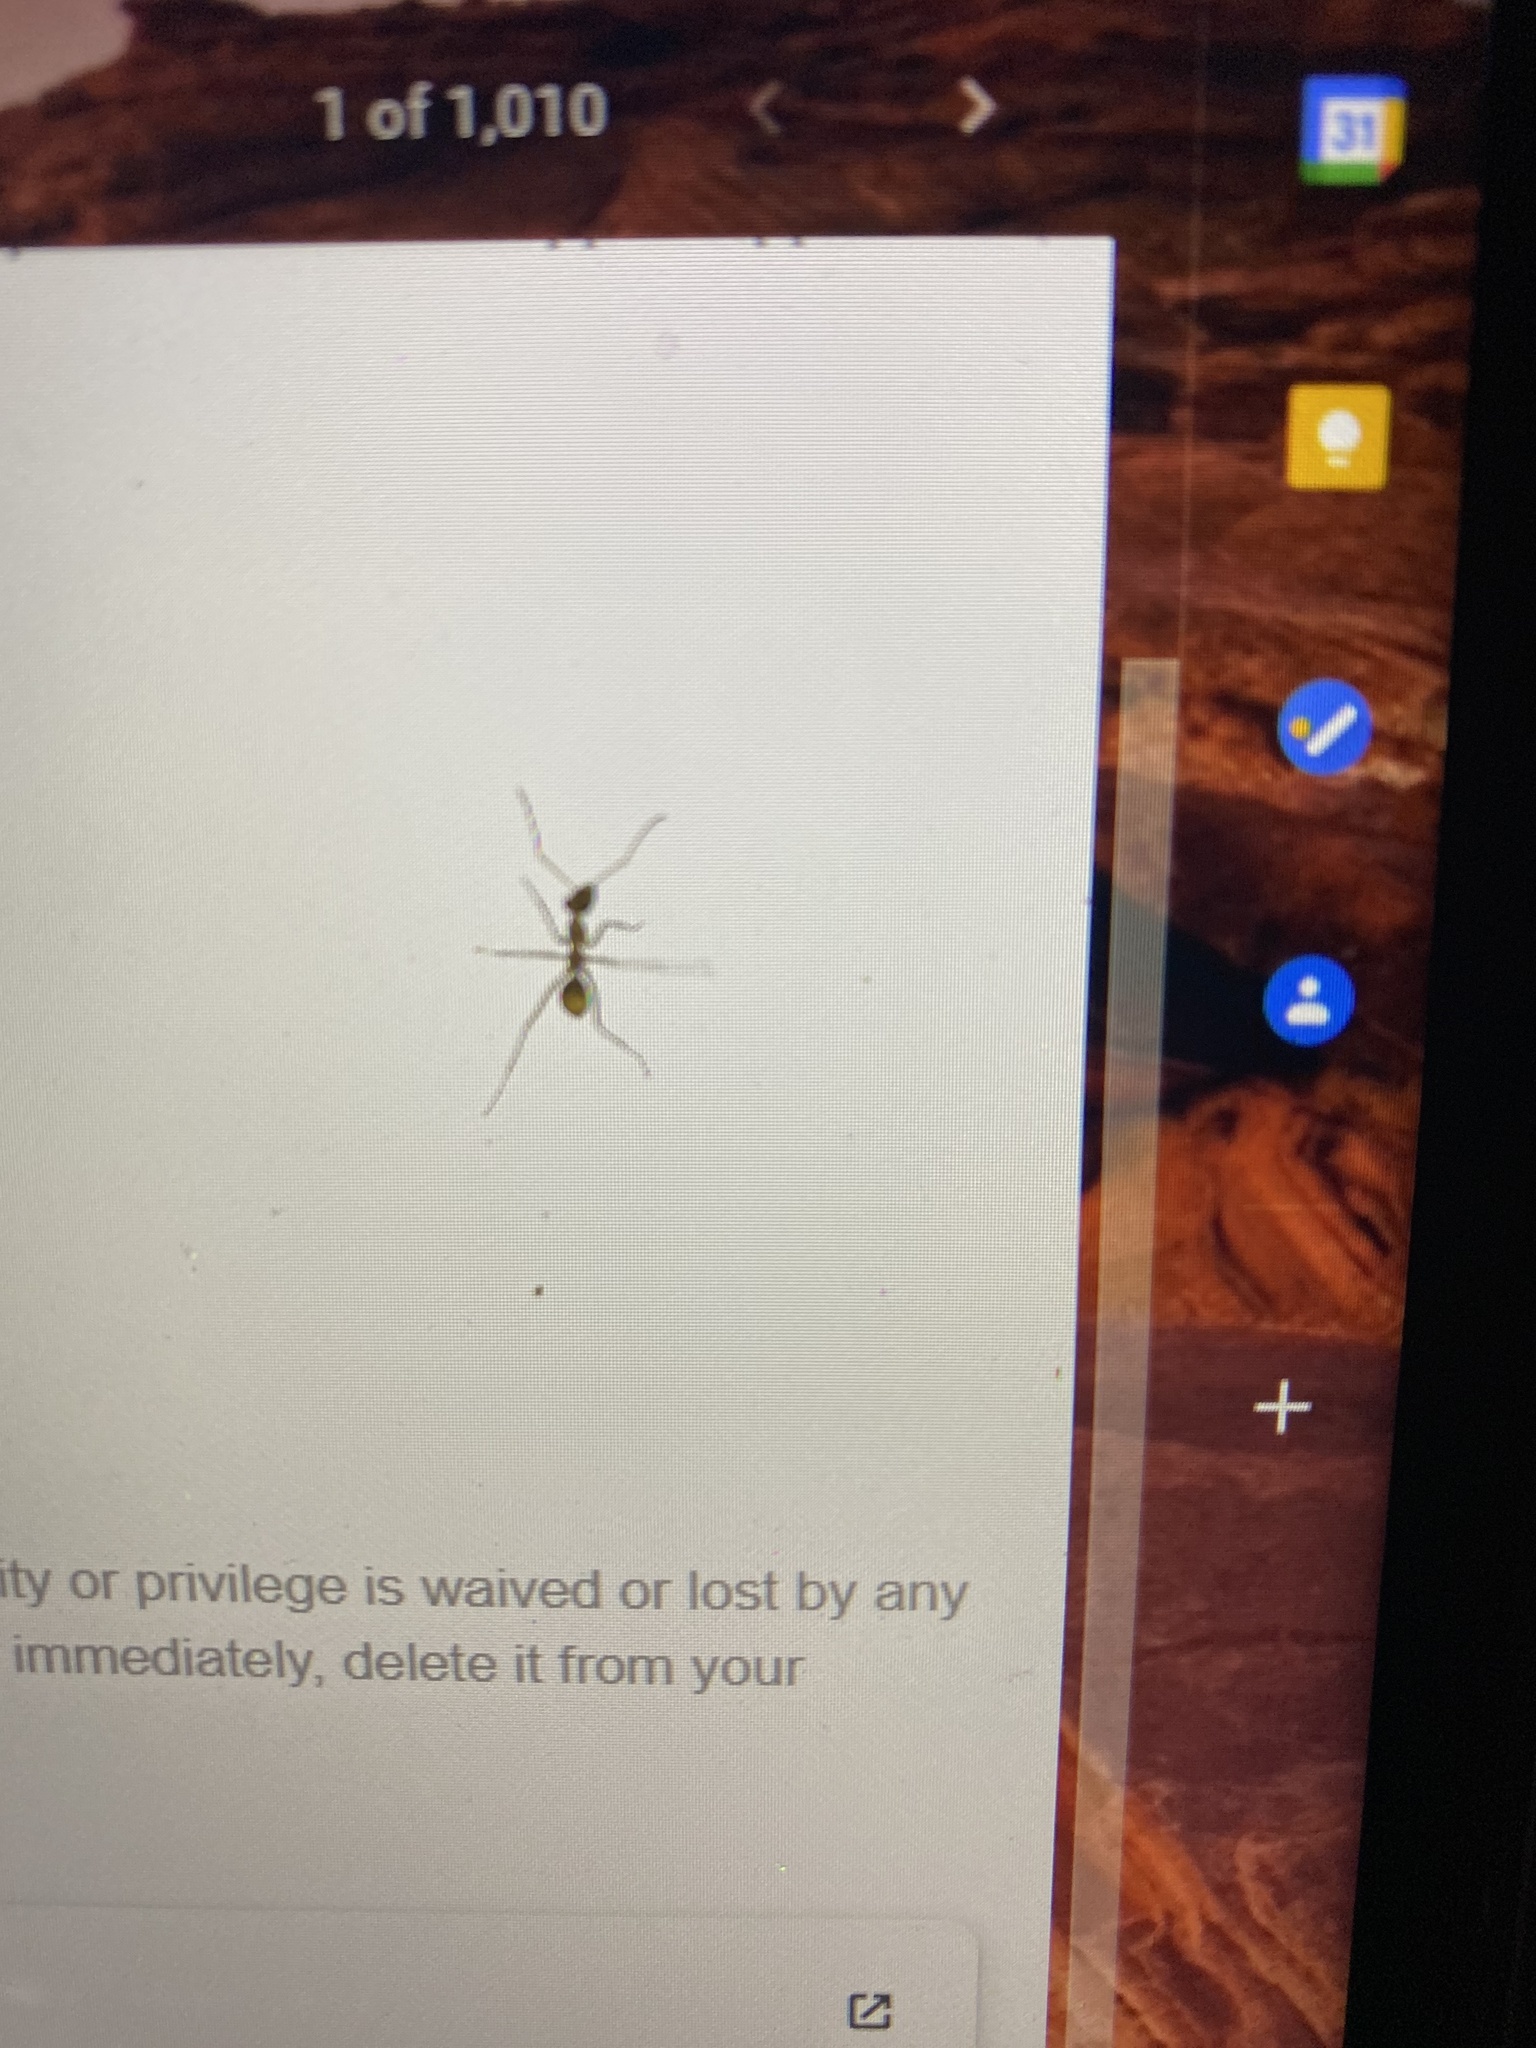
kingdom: Animalia
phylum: Arthropoda
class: Insecta
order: Hymenoptera
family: Formicidae
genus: Myrmecocystus
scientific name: Myrmecocystus mexicanus
